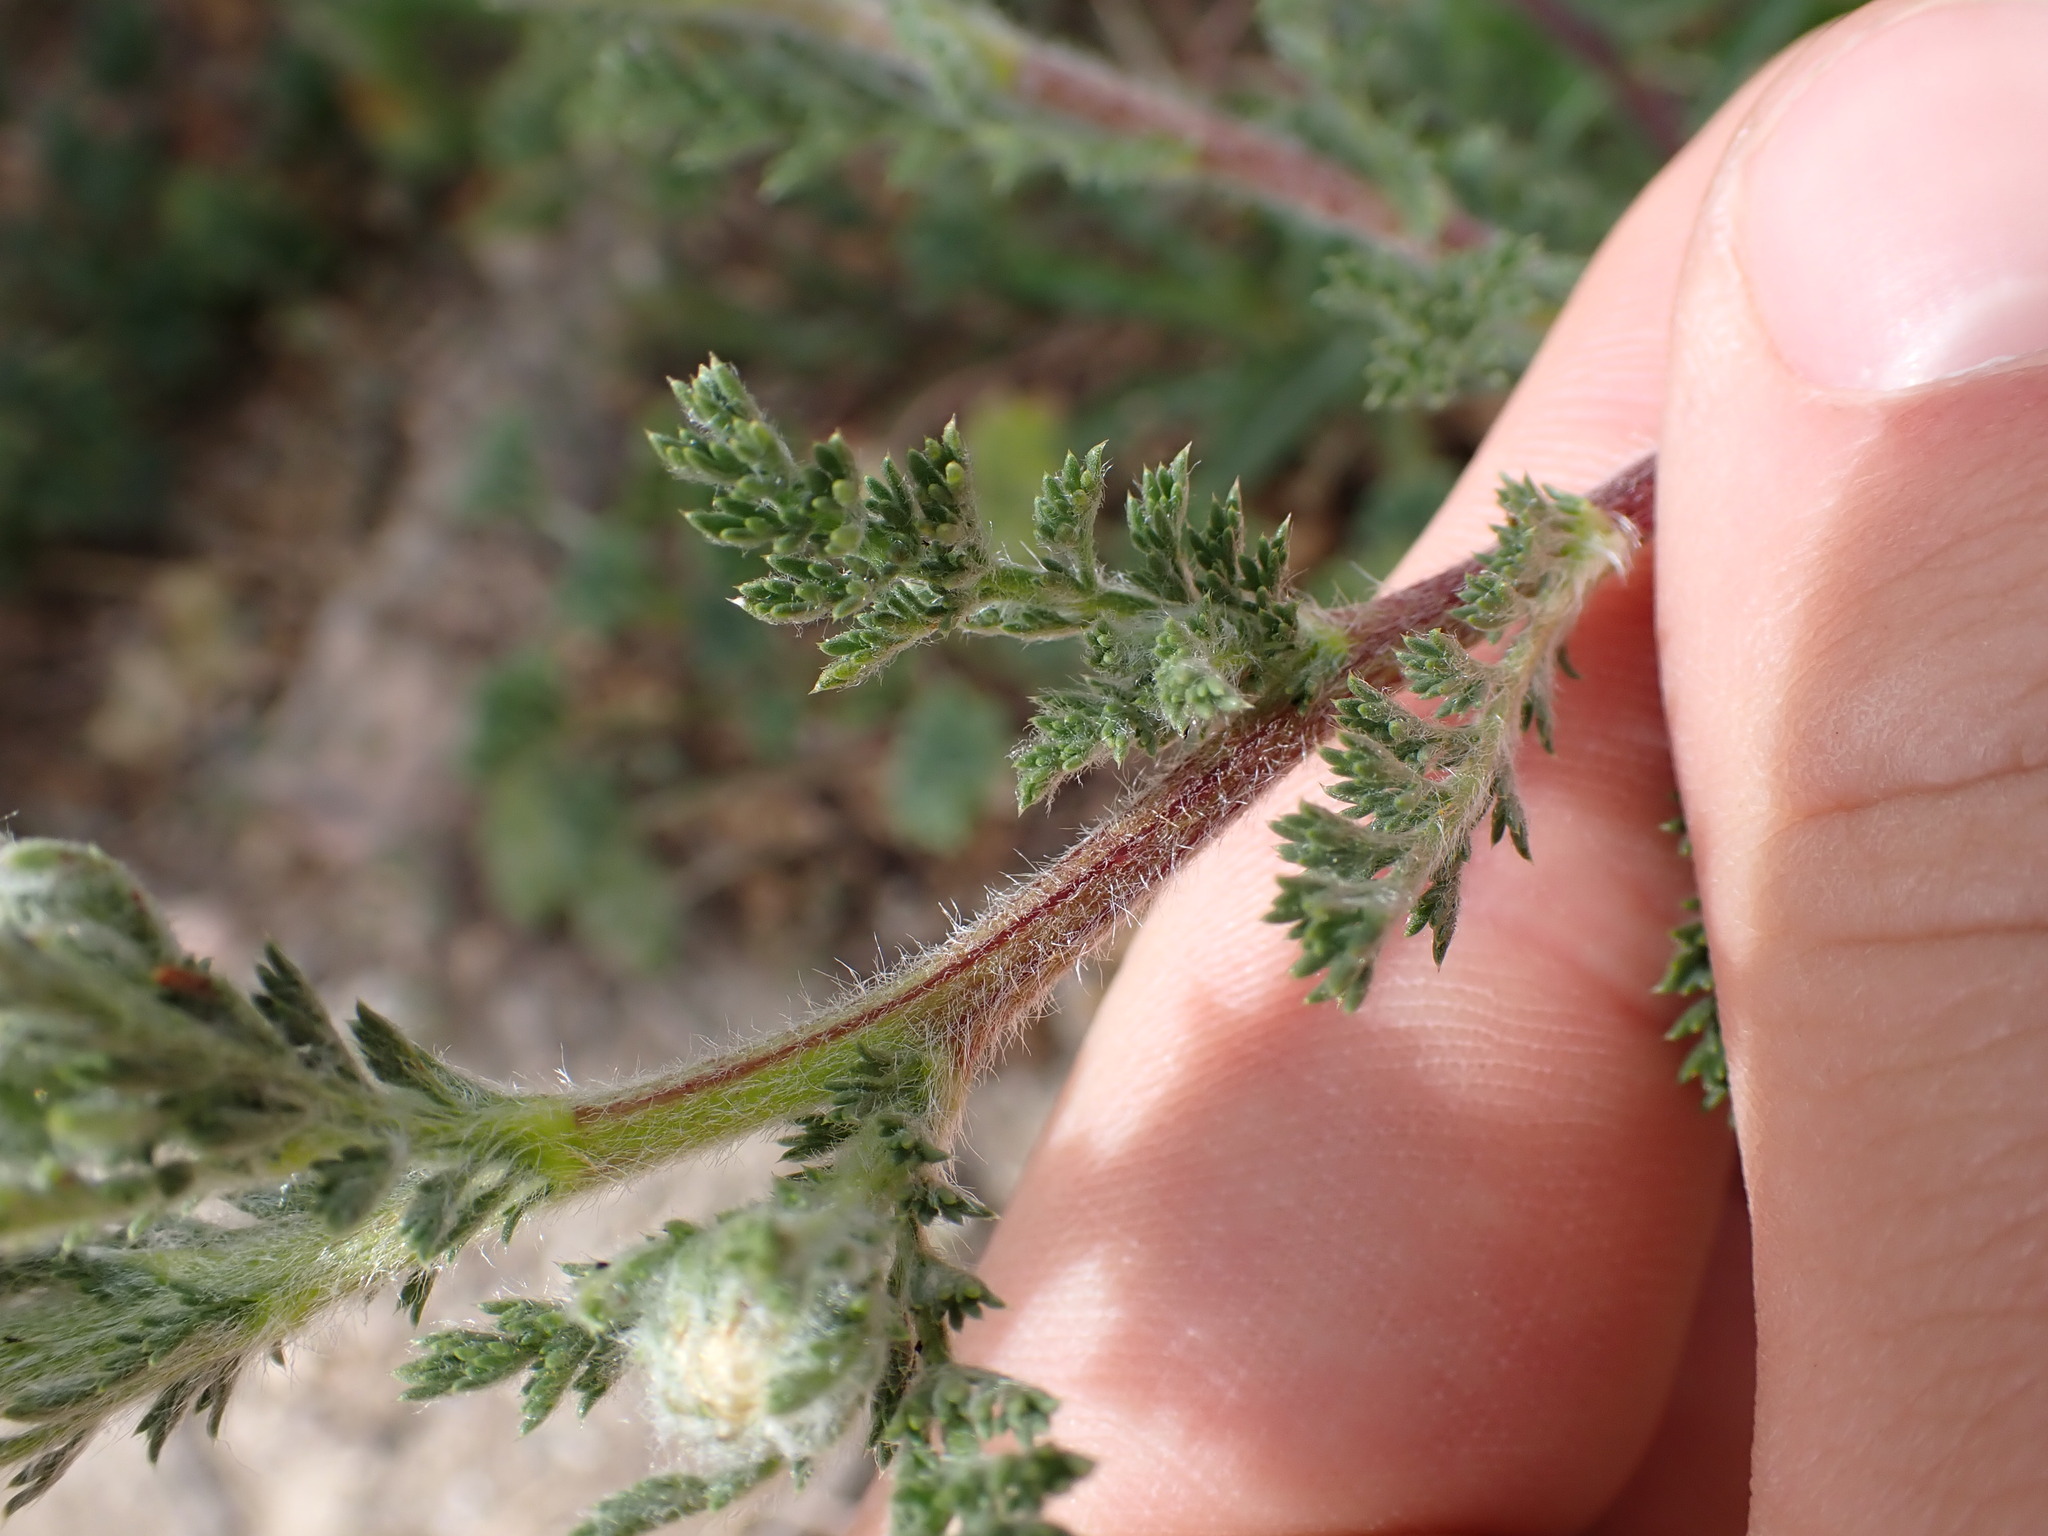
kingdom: Plantae
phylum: Tracheophyta
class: Magnoliopsida
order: Asterales
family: Asteraceae
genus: Anacyclus
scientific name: Anacyclus radiatus
